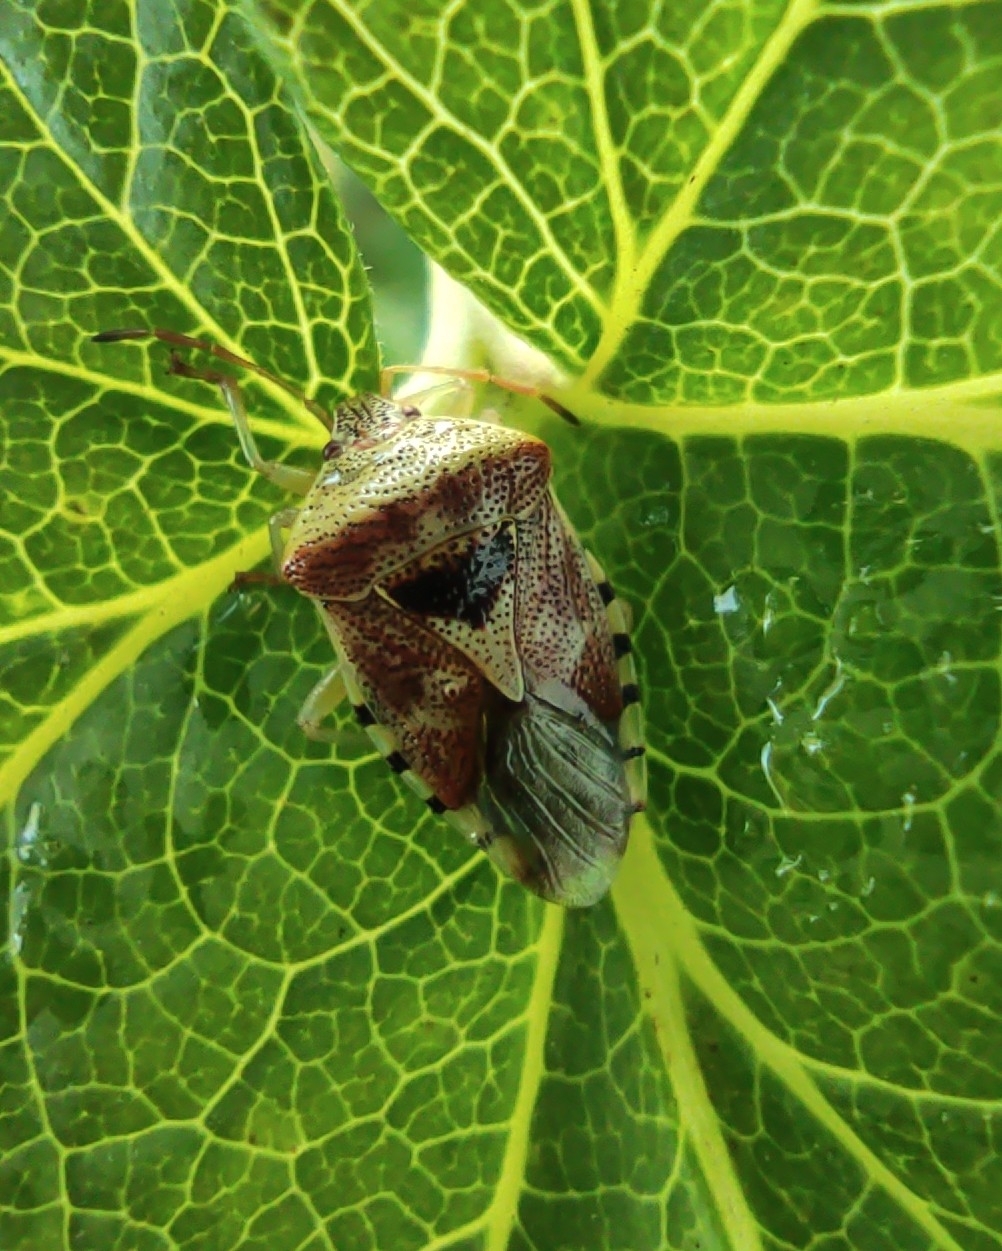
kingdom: Animalia
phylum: Arthropoda
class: Insecta
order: Hemiptera
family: Acanthosomatidae
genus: Elasmucha
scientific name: Elasmucha grisea
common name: Parent bug
